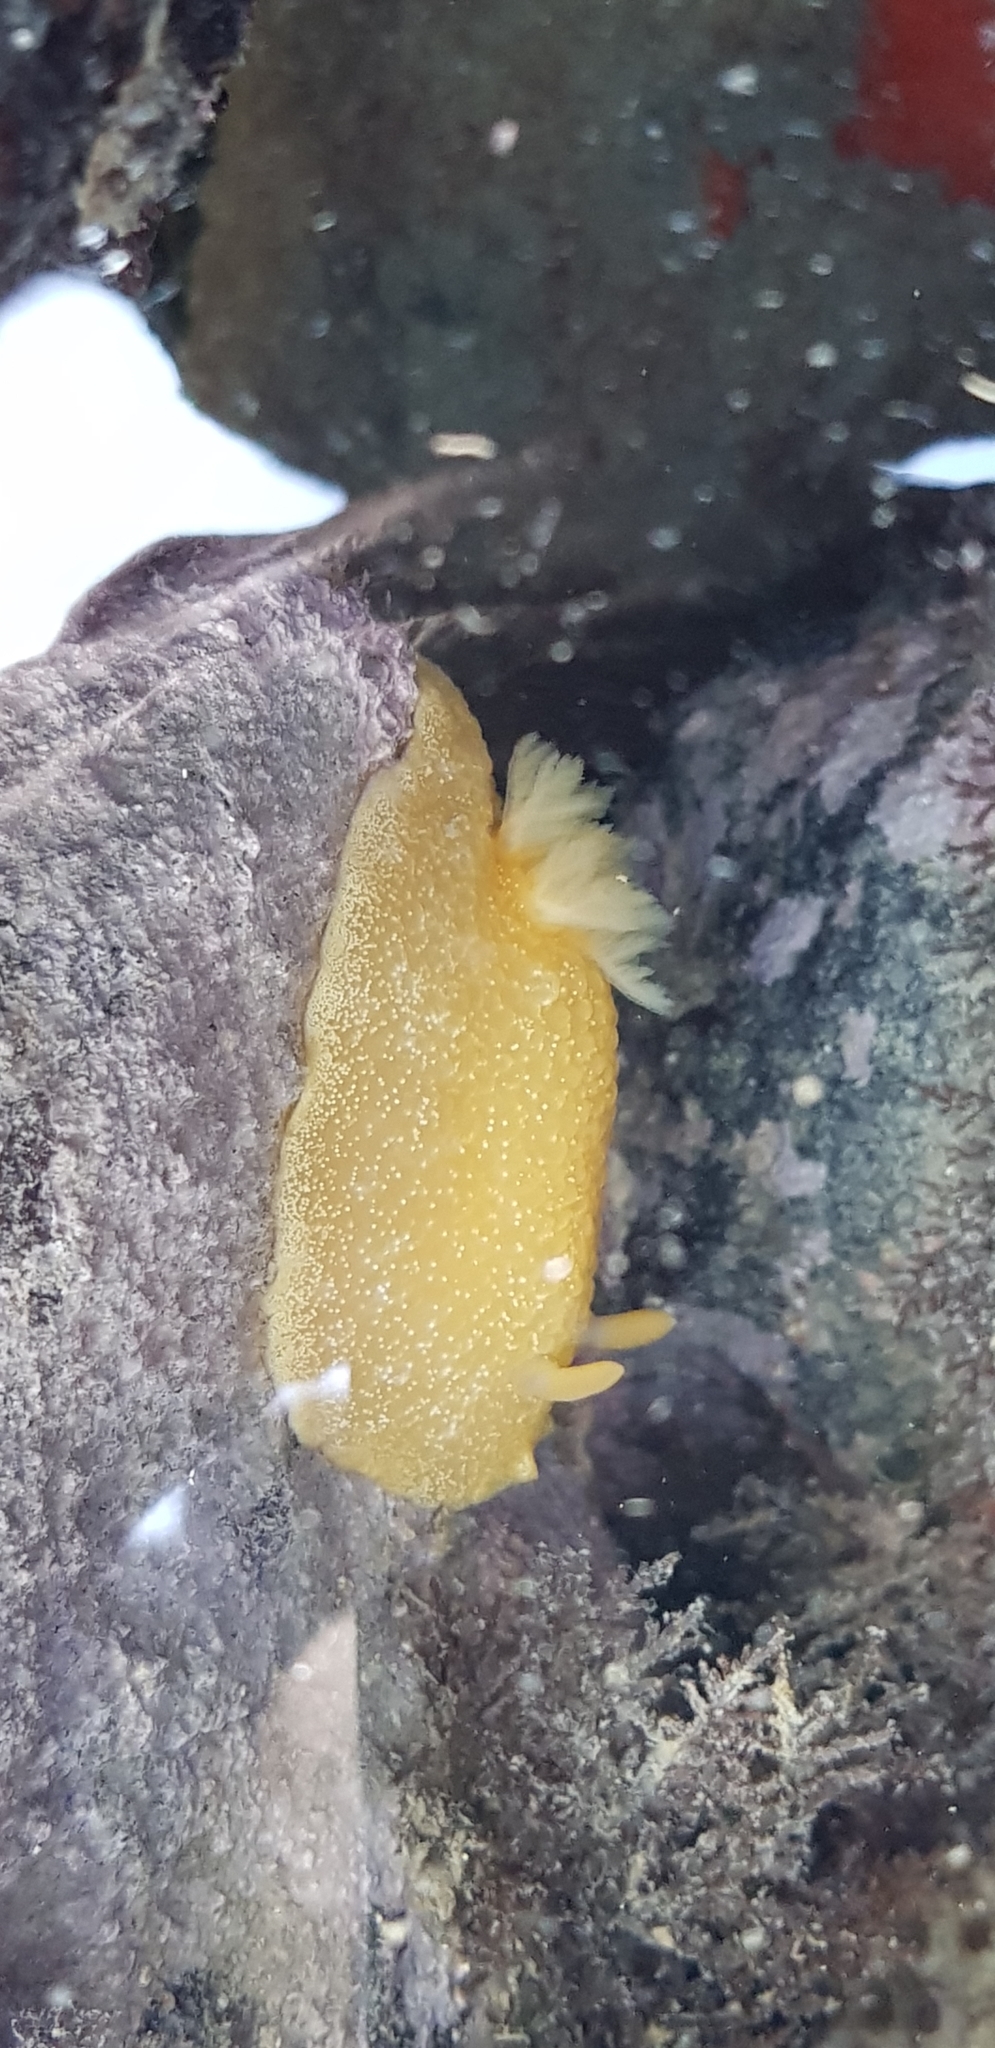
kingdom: Animalia
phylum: Mollusca
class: Gastropoda
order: Nudibranchia
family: Dendrodorididae
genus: Dendrodoris
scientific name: Dendrodoris citrina
